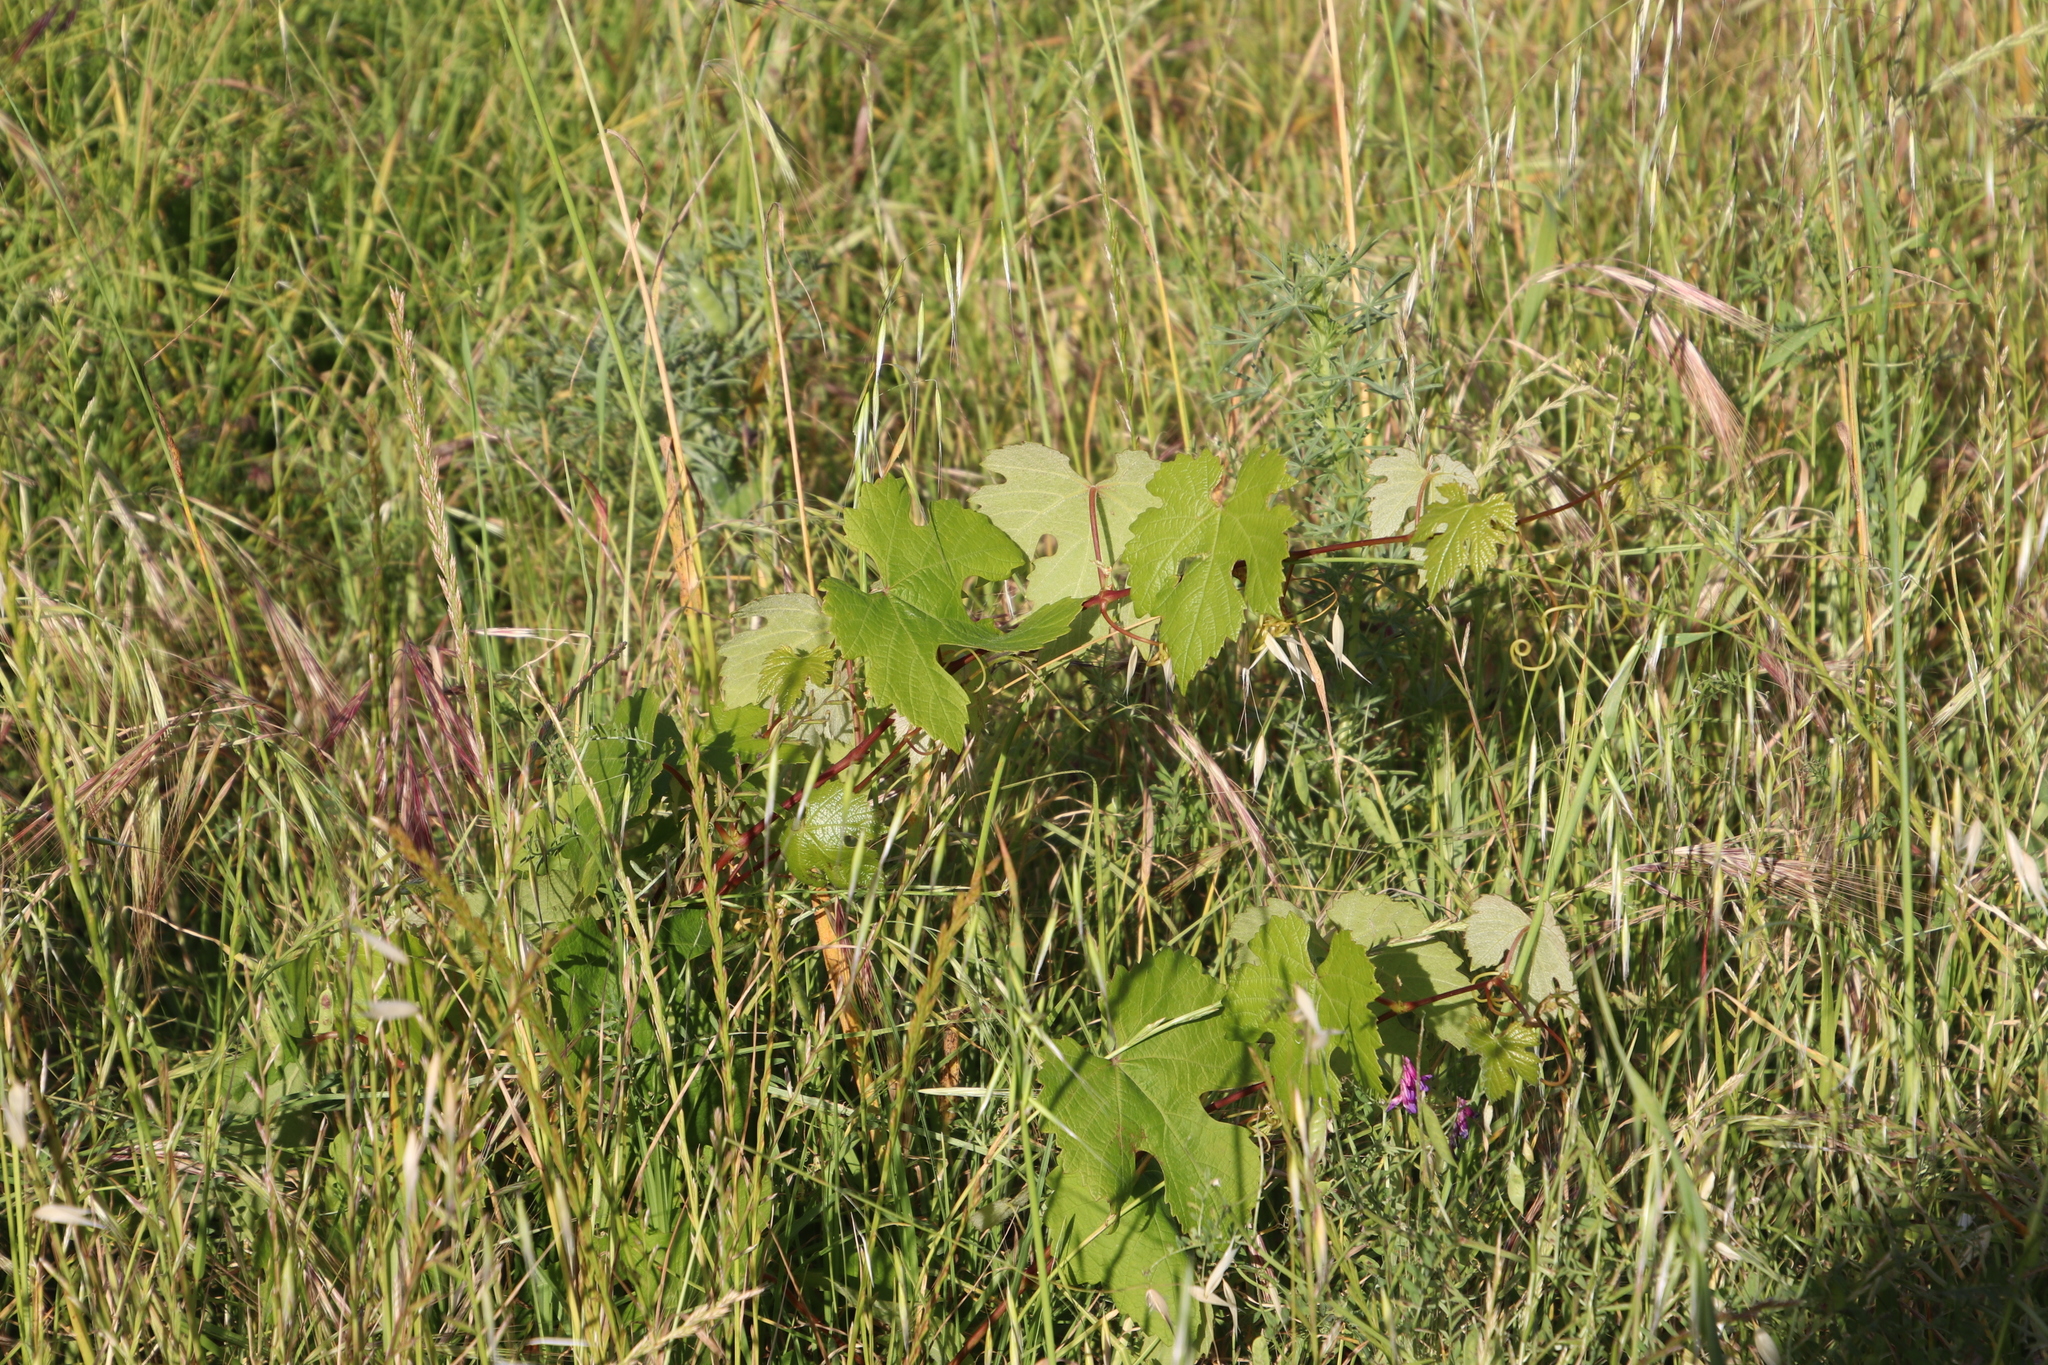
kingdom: Plantae
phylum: Tracheophyta
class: Magnoliopsida
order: Vitales
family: Vitaceae
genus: Vitis
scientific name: Vitis vinifera
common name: Grape-vine
